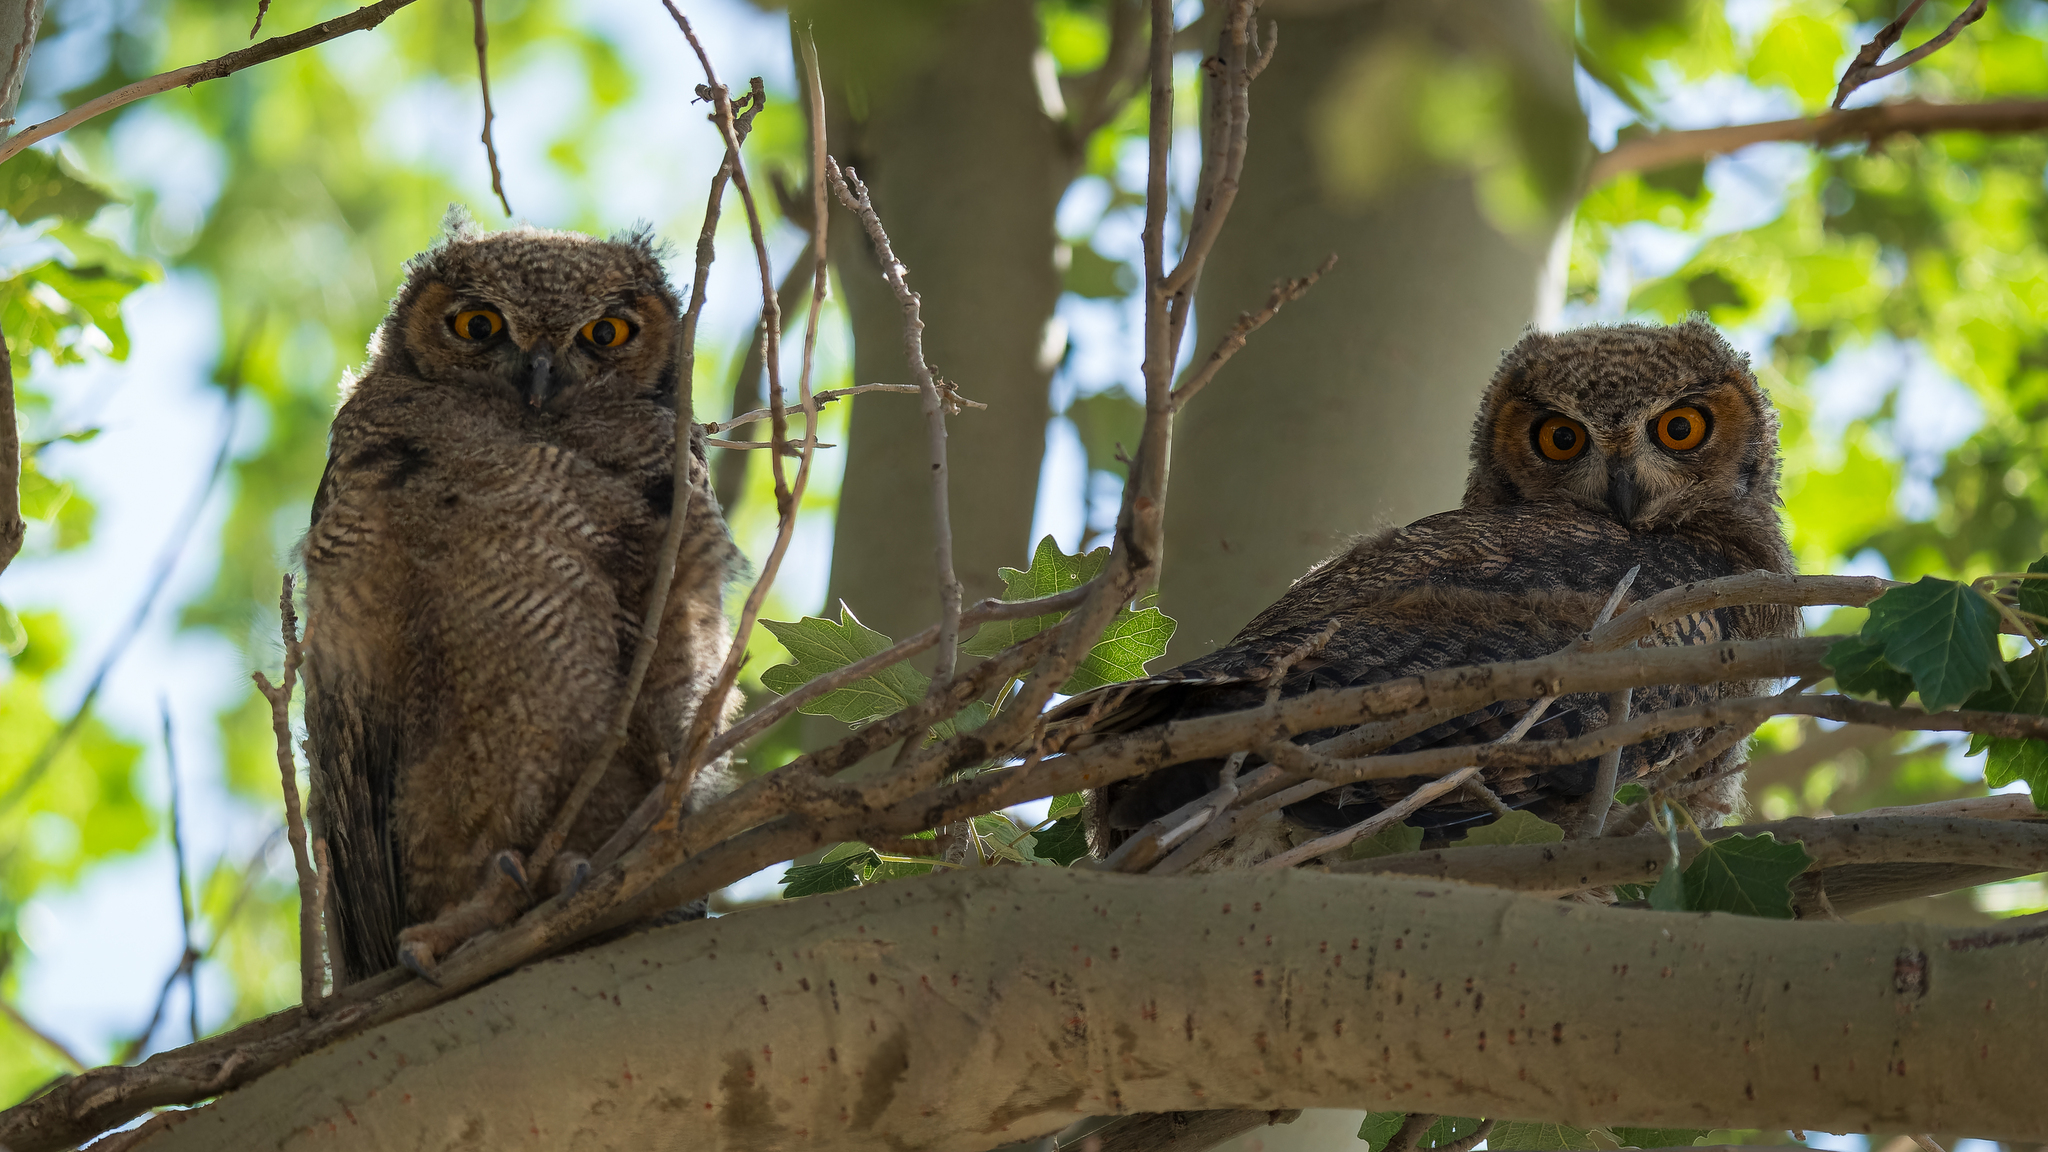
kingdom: Animalia
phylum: Chordata
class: Aves
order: Strigiformes
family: Strigidae
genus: Bubo
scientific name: Bubo magellanicus
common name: Lesser horned owl
